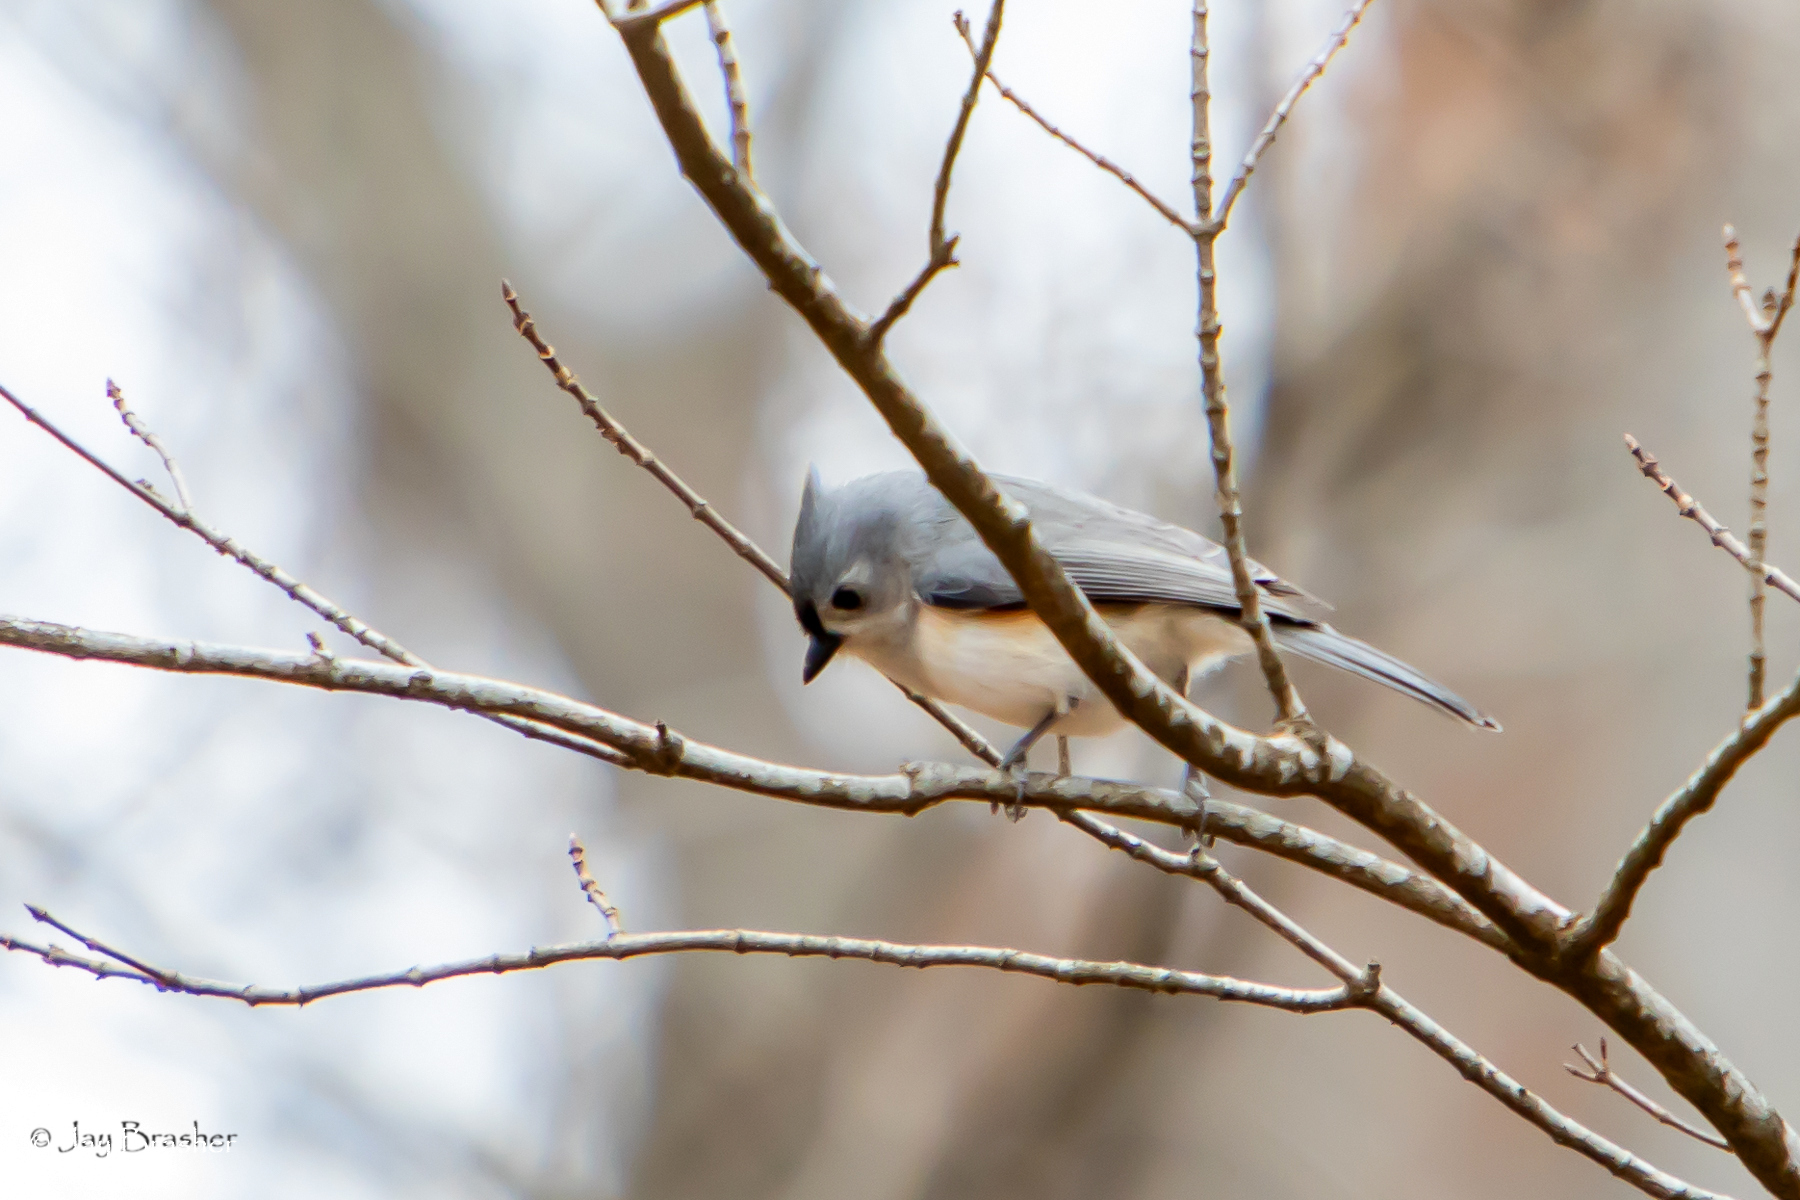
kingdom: Animalia
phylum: Chordata
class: Aves
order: Passeriformes
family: Paridae
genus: Baeolophus
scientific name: Baeolophus bicolor
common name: Tufted titmouse
